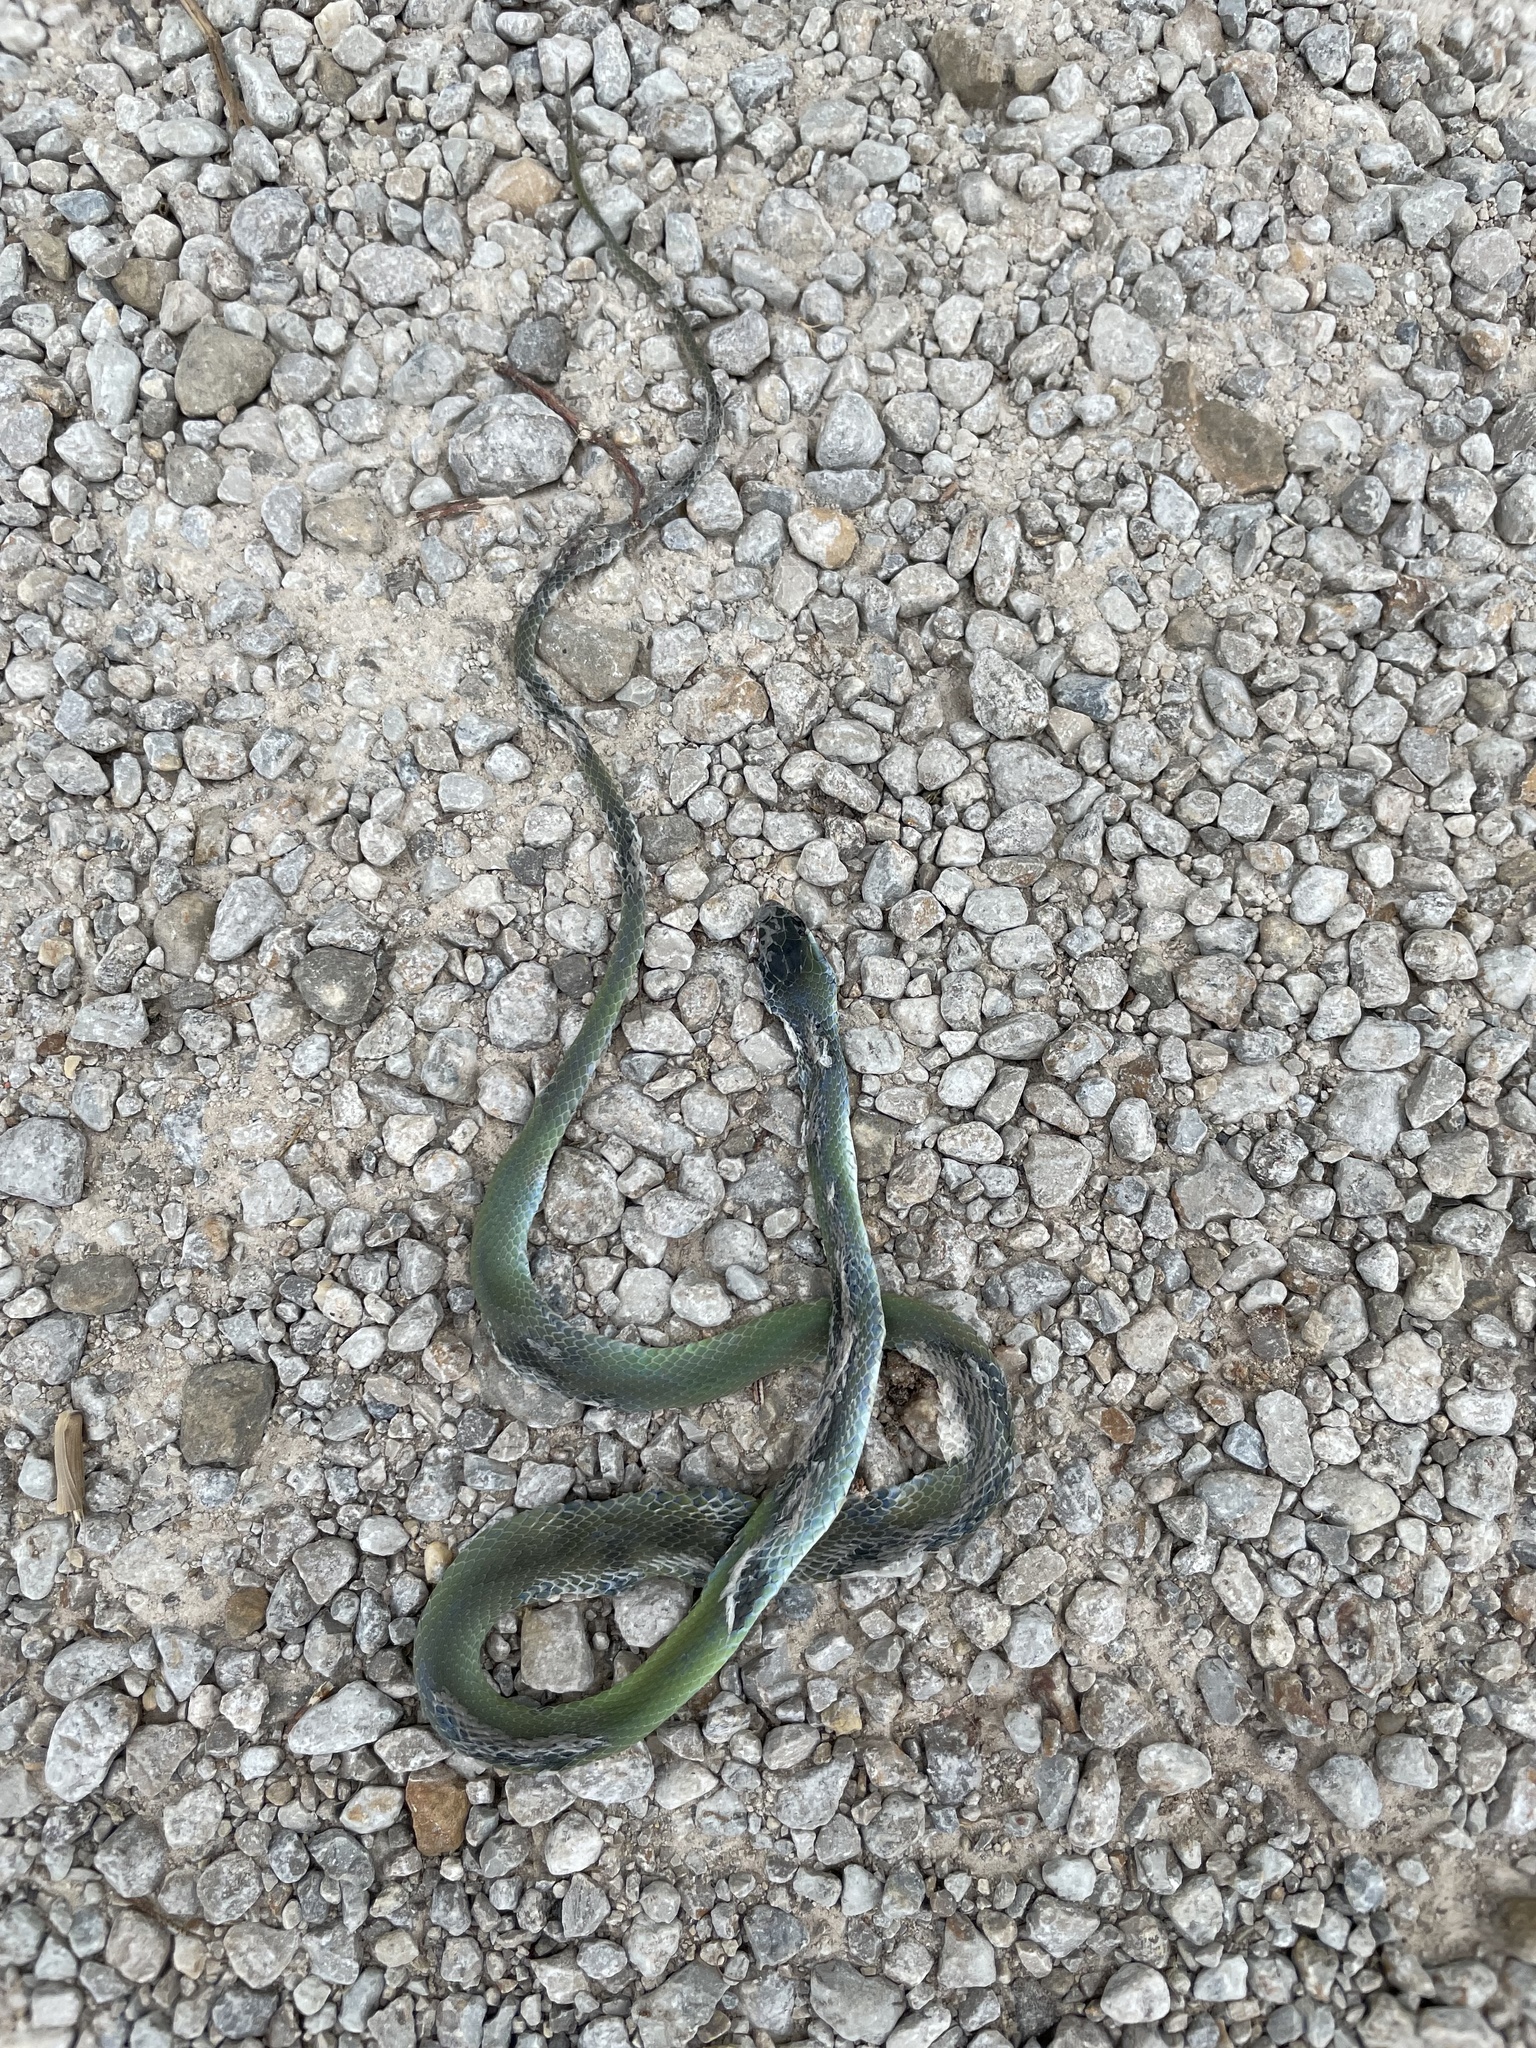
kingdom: Animalia
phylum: Chordata
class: Squamata
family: Colubridae
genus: Opheodrys
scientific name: Opheodrys aestivus
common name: Rough greensnake
